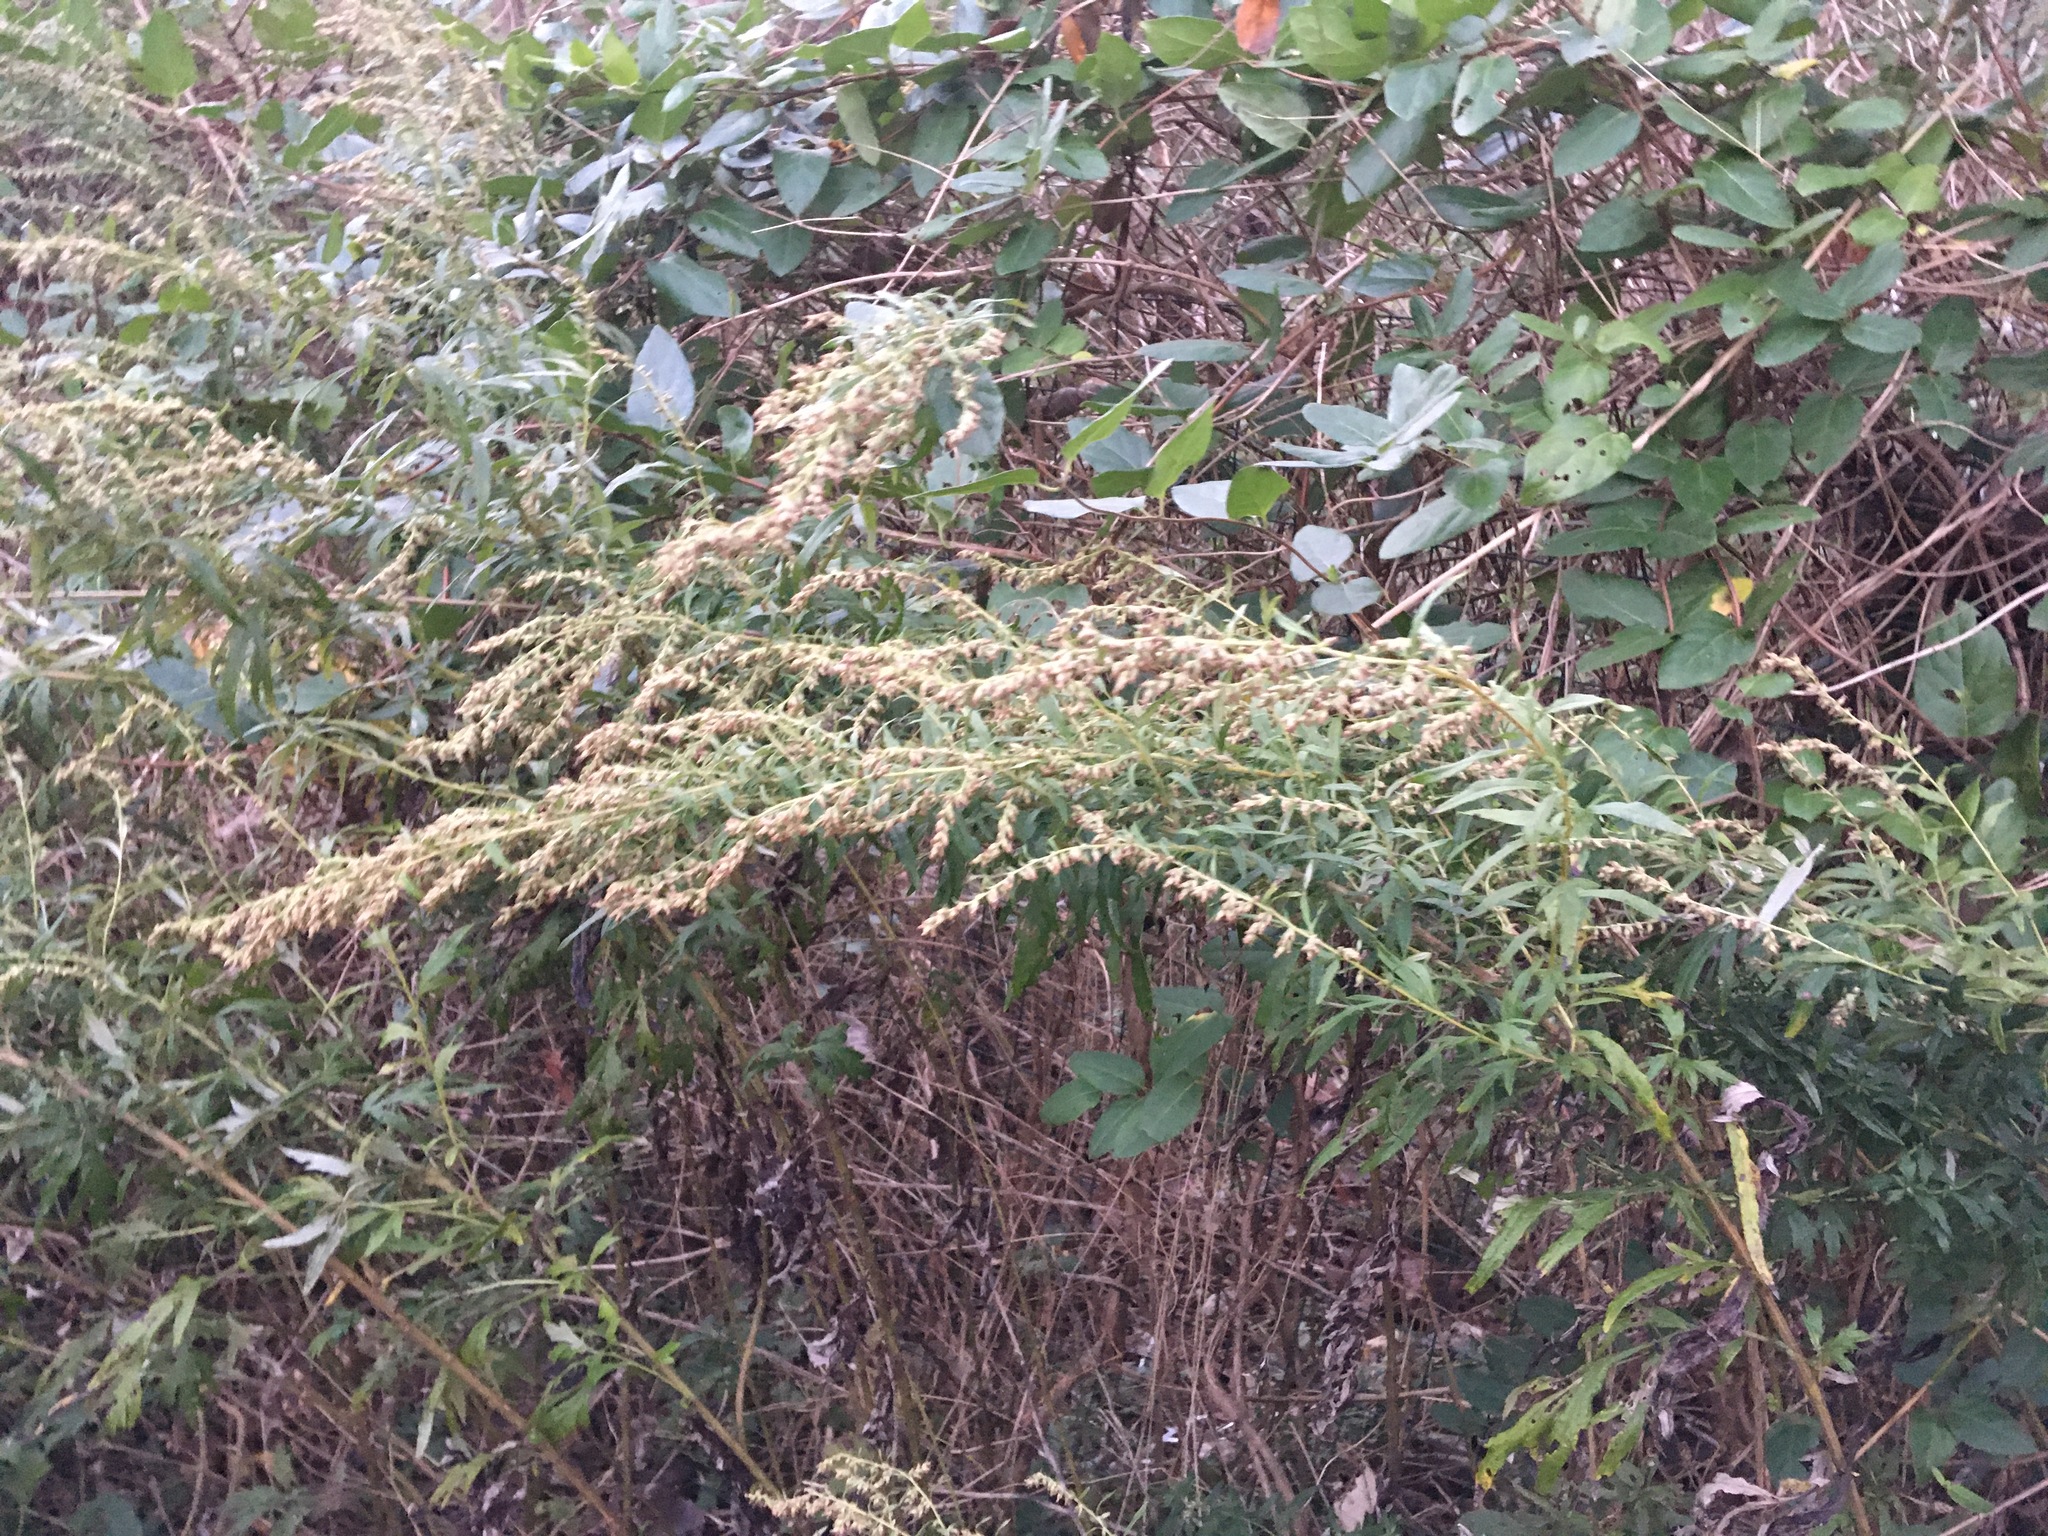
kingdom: Plantae
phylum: Tracheophyta
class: Magnoliopsida
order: Asterales
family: Asteraceae
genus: Artemisia
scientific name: Artemisia vulgaris
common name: Mugwort
